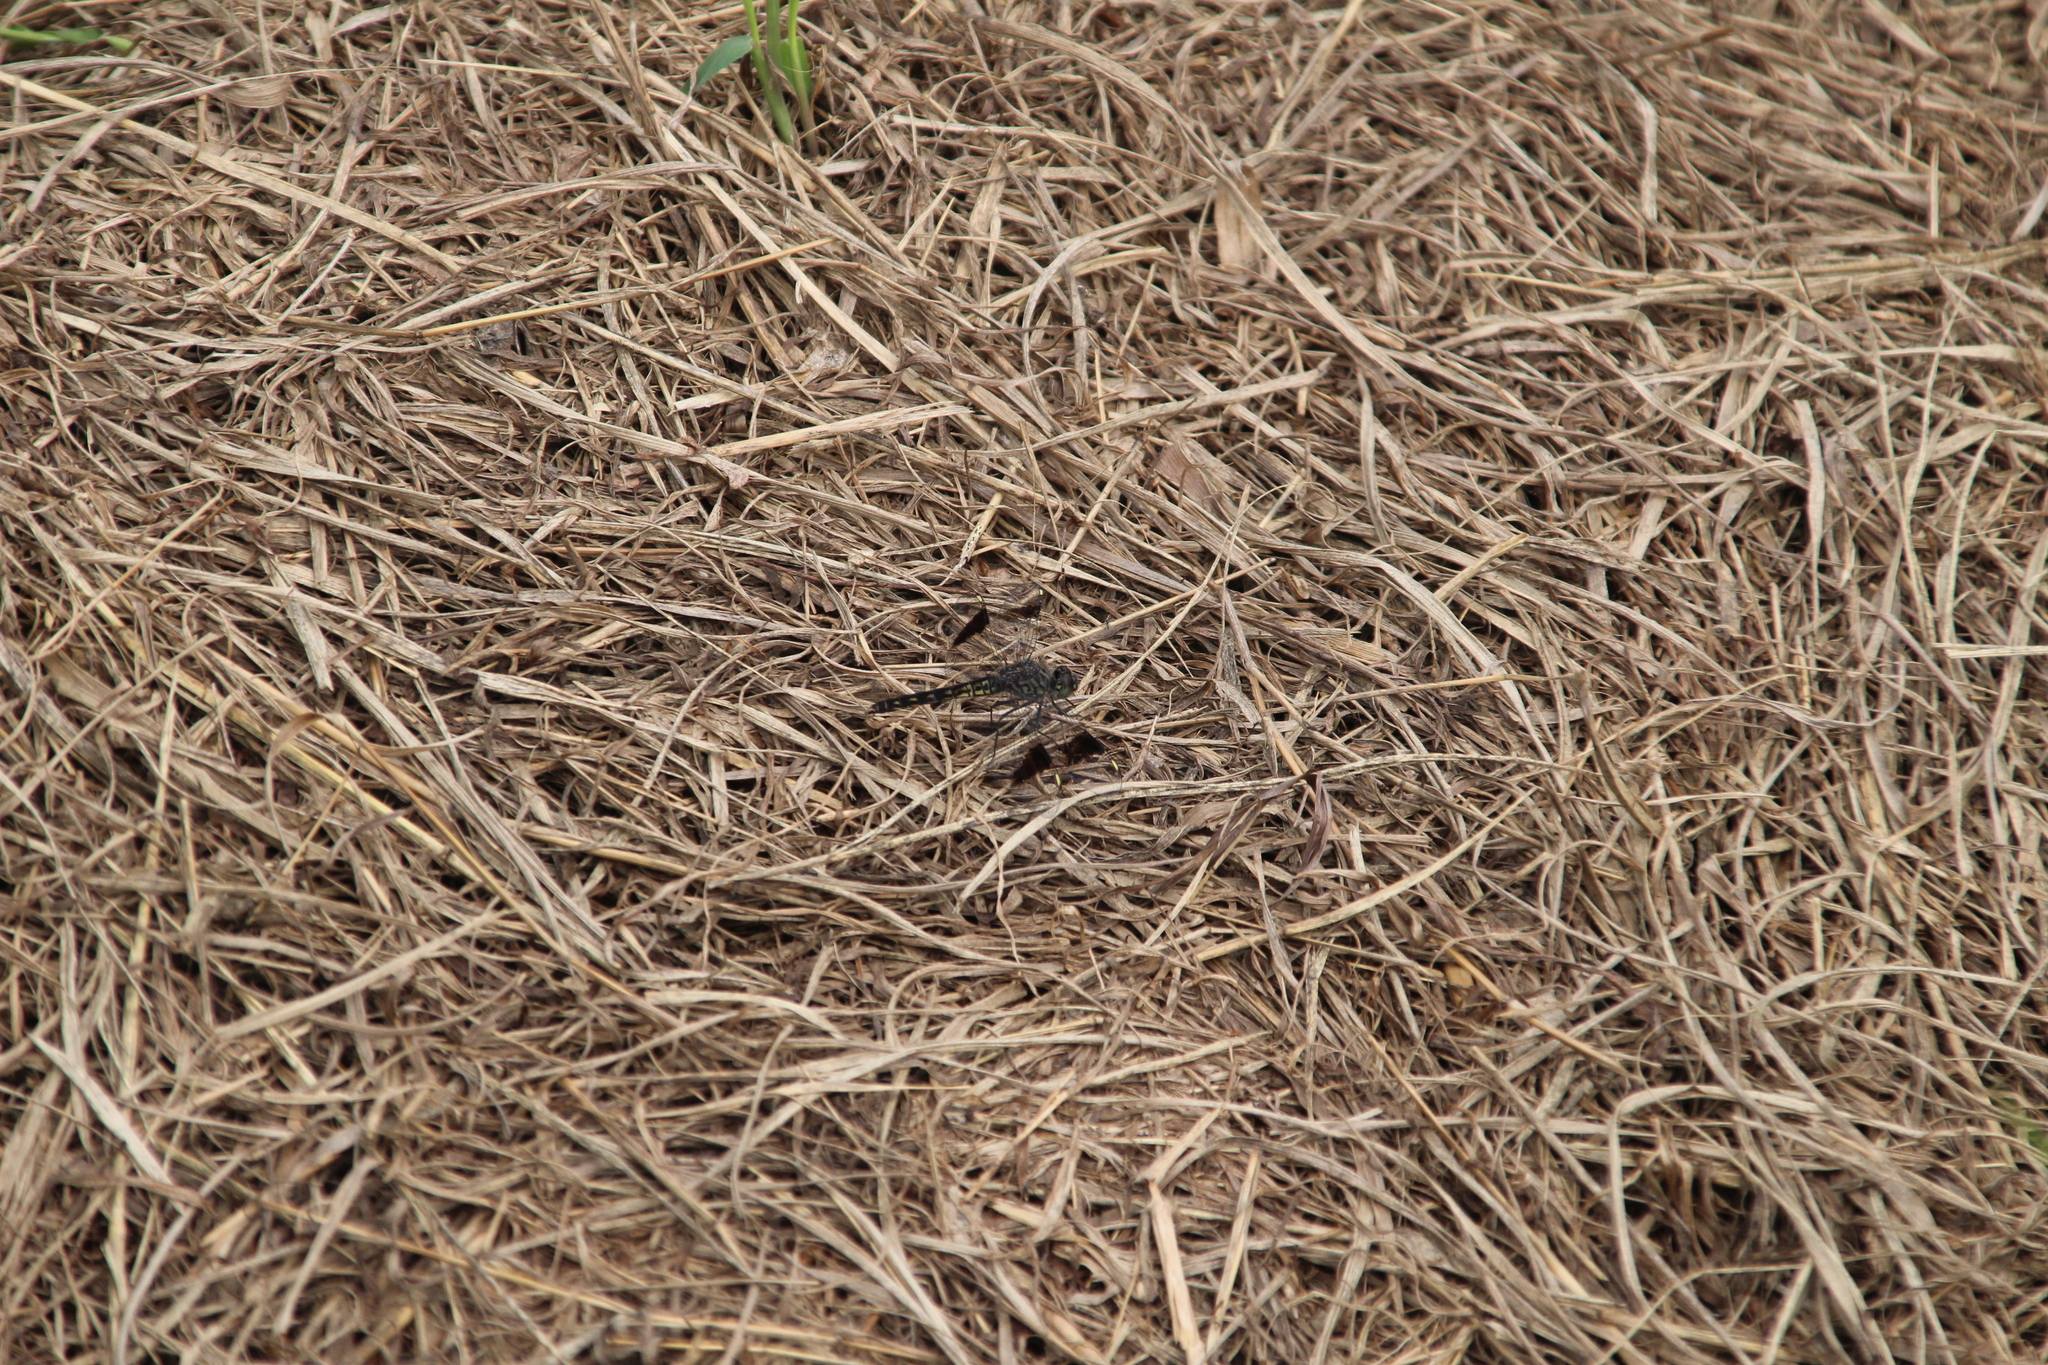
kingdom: Animalia
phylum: Arthropoda
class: Insecta
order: Odonata
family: Libellulidae
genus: Brachythemis
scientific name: Brachythemis leucosticta
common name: Banded groundling
